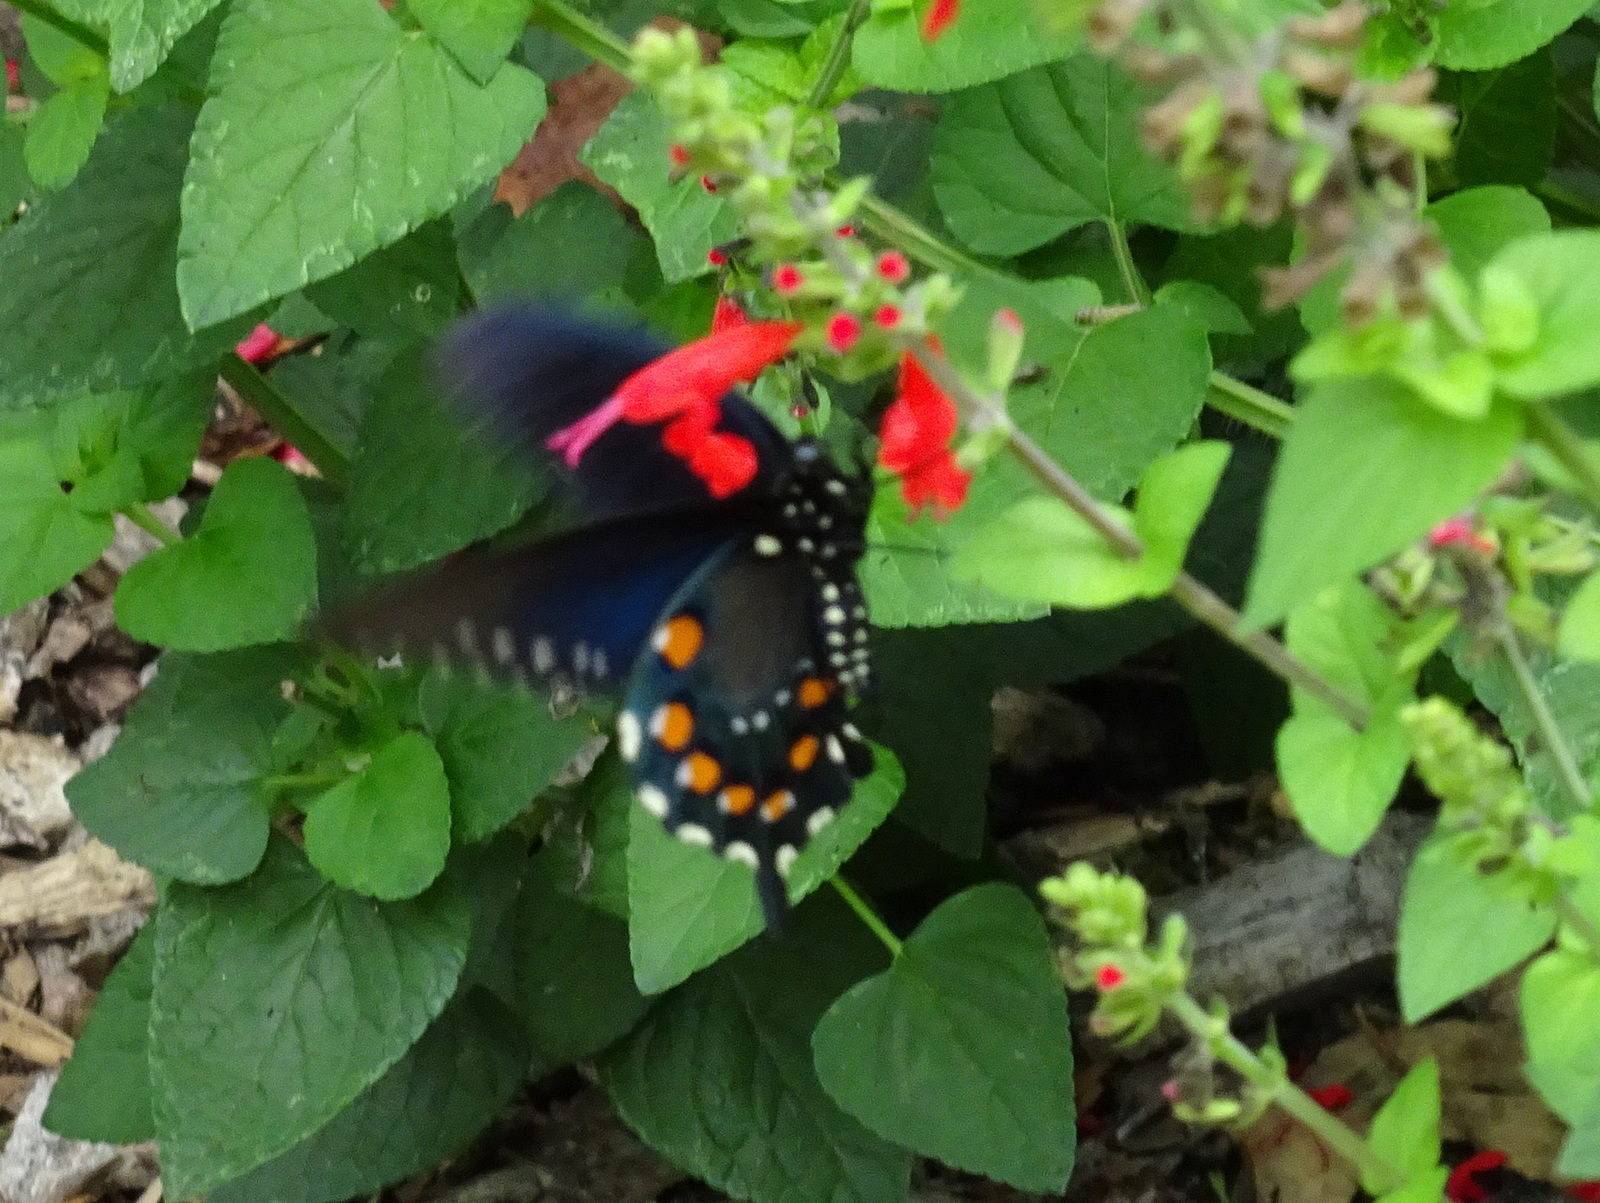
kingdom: Animalia
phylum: Arthropoda
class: Insecta
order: Lepidoptera
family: Papilionidae
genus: Battus
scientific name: Battus philenor
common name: Pipevine swallowtail
